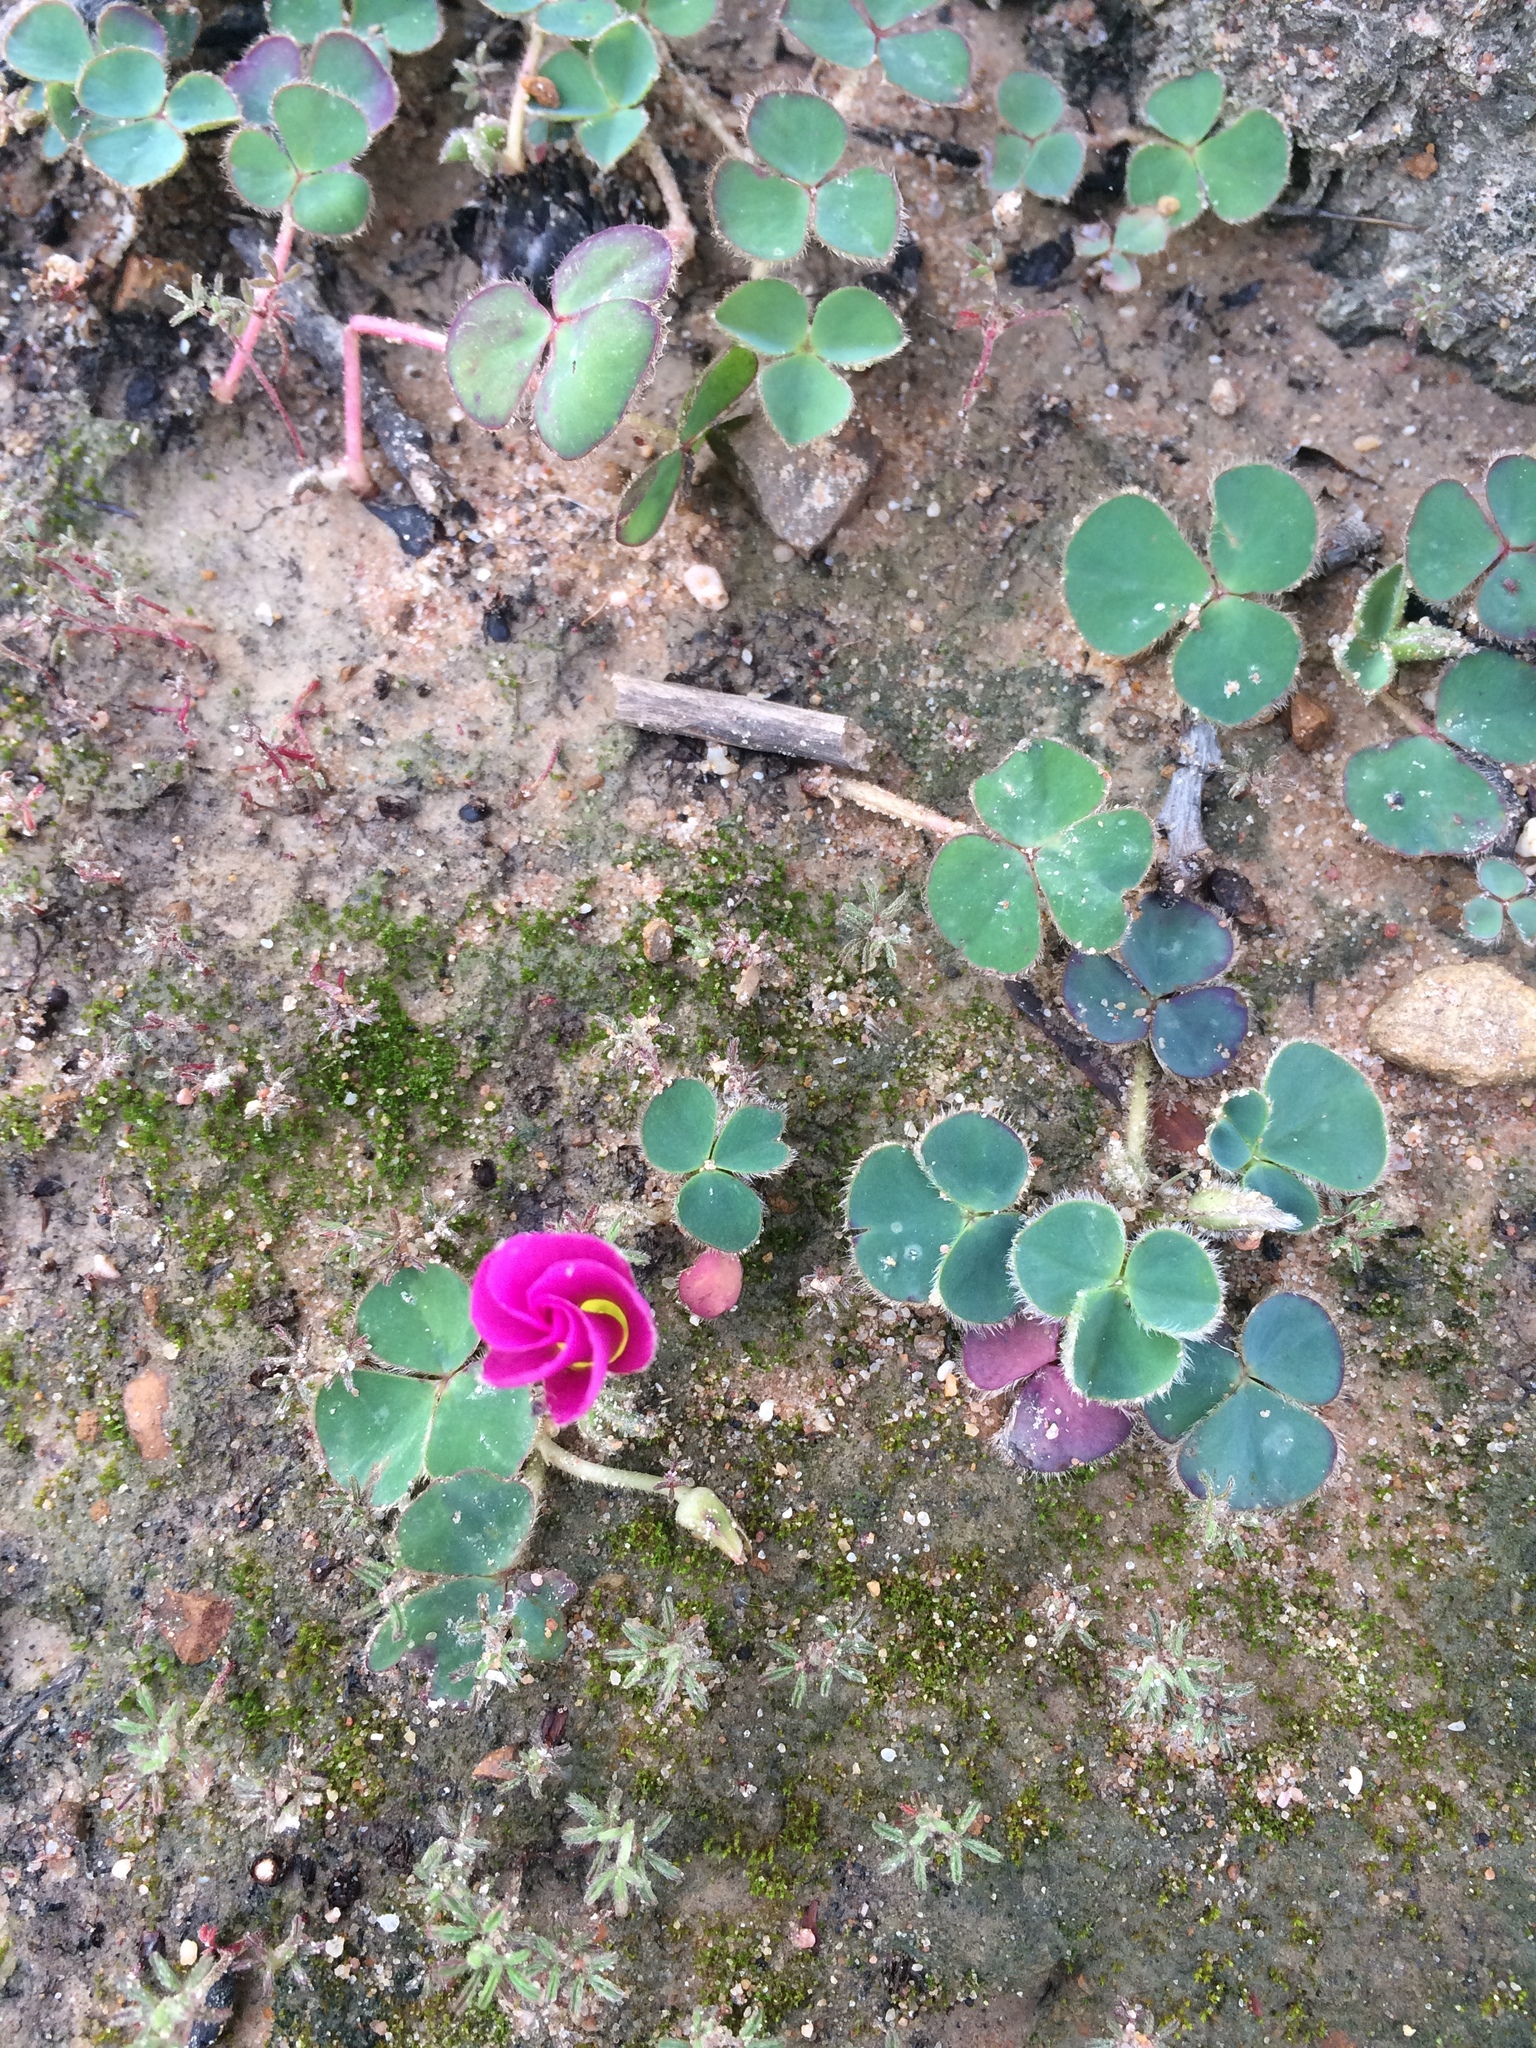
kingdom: Plantae
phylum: Tracheophyta
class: Magnoliopsida
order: Oxalidales
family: Oxalidaceae
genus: Oxalis
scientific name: Oxalis purpurea
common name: Purple woodsorrel
